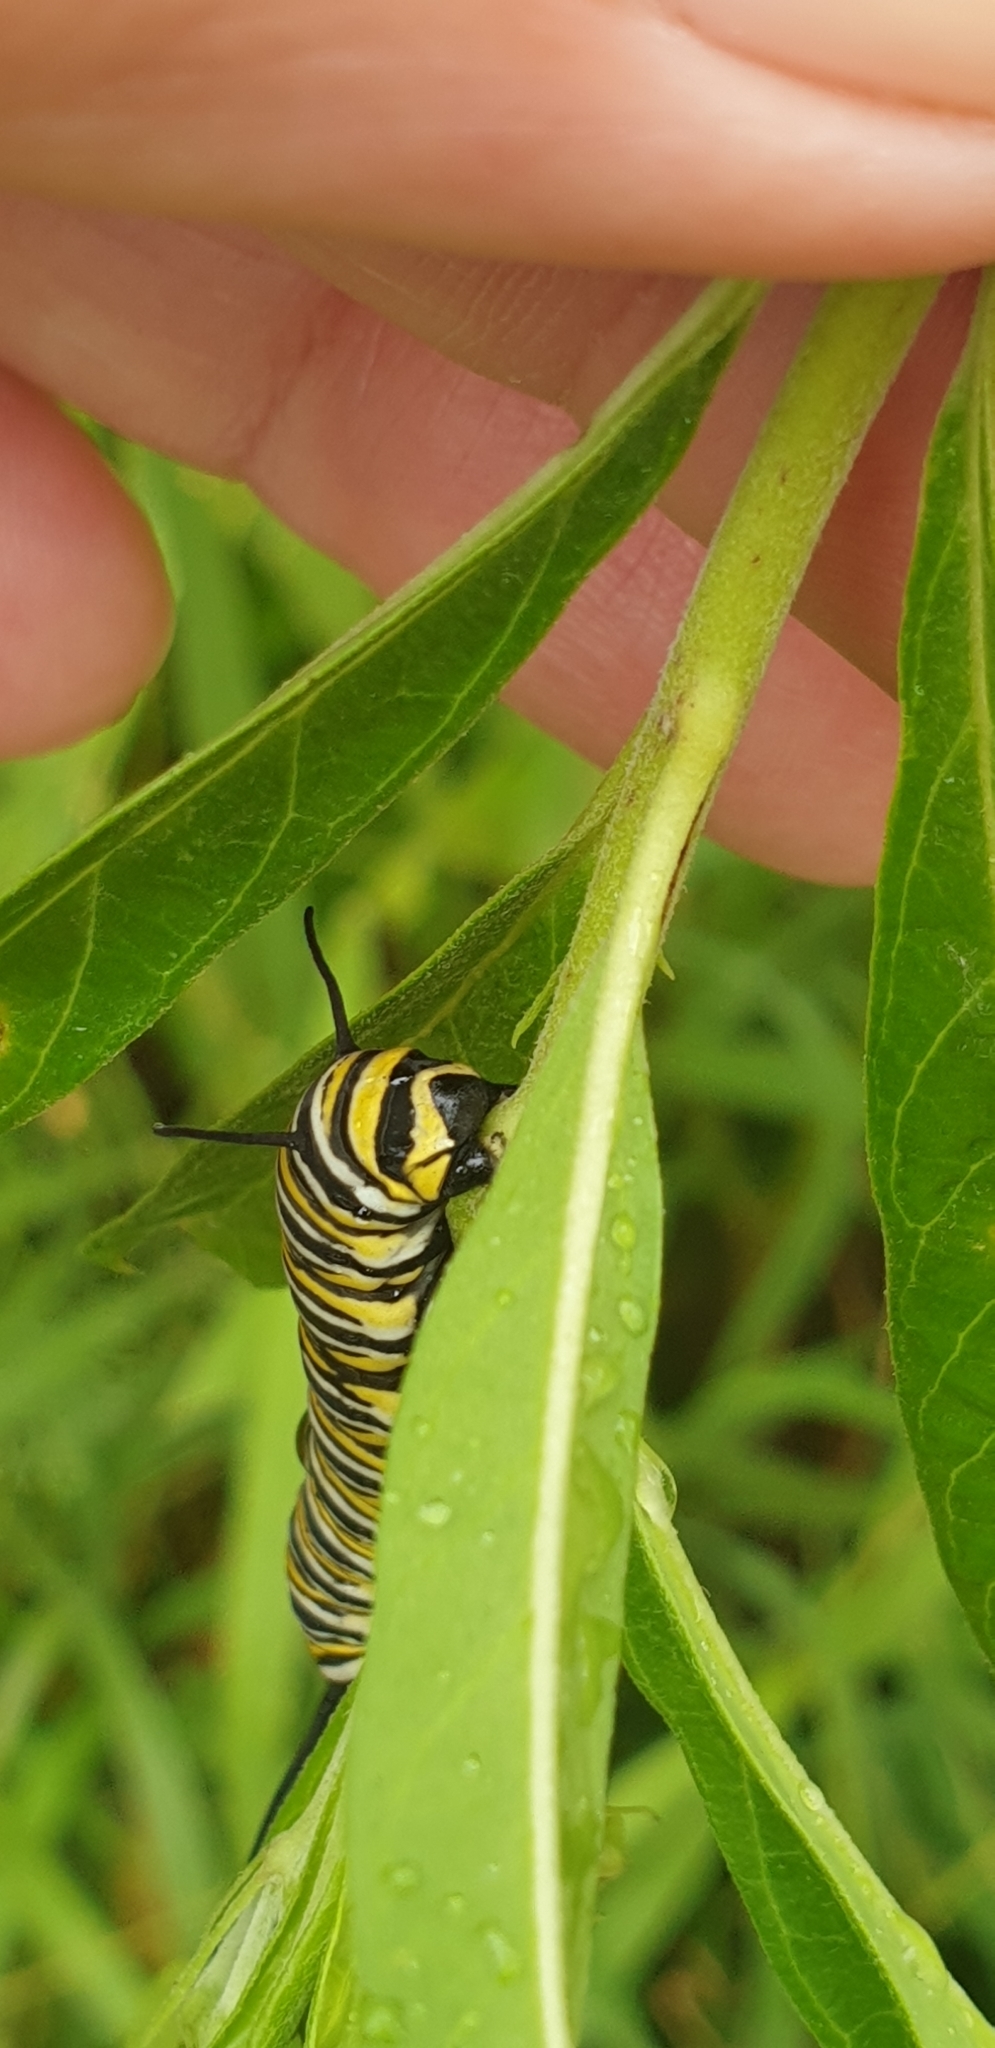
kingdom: Animalia
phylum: Arthropoda
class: Insecta
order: Lepidoptera
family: Nymphalidae
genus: Danaus
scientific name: Danaus plexippus
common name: Monarch
